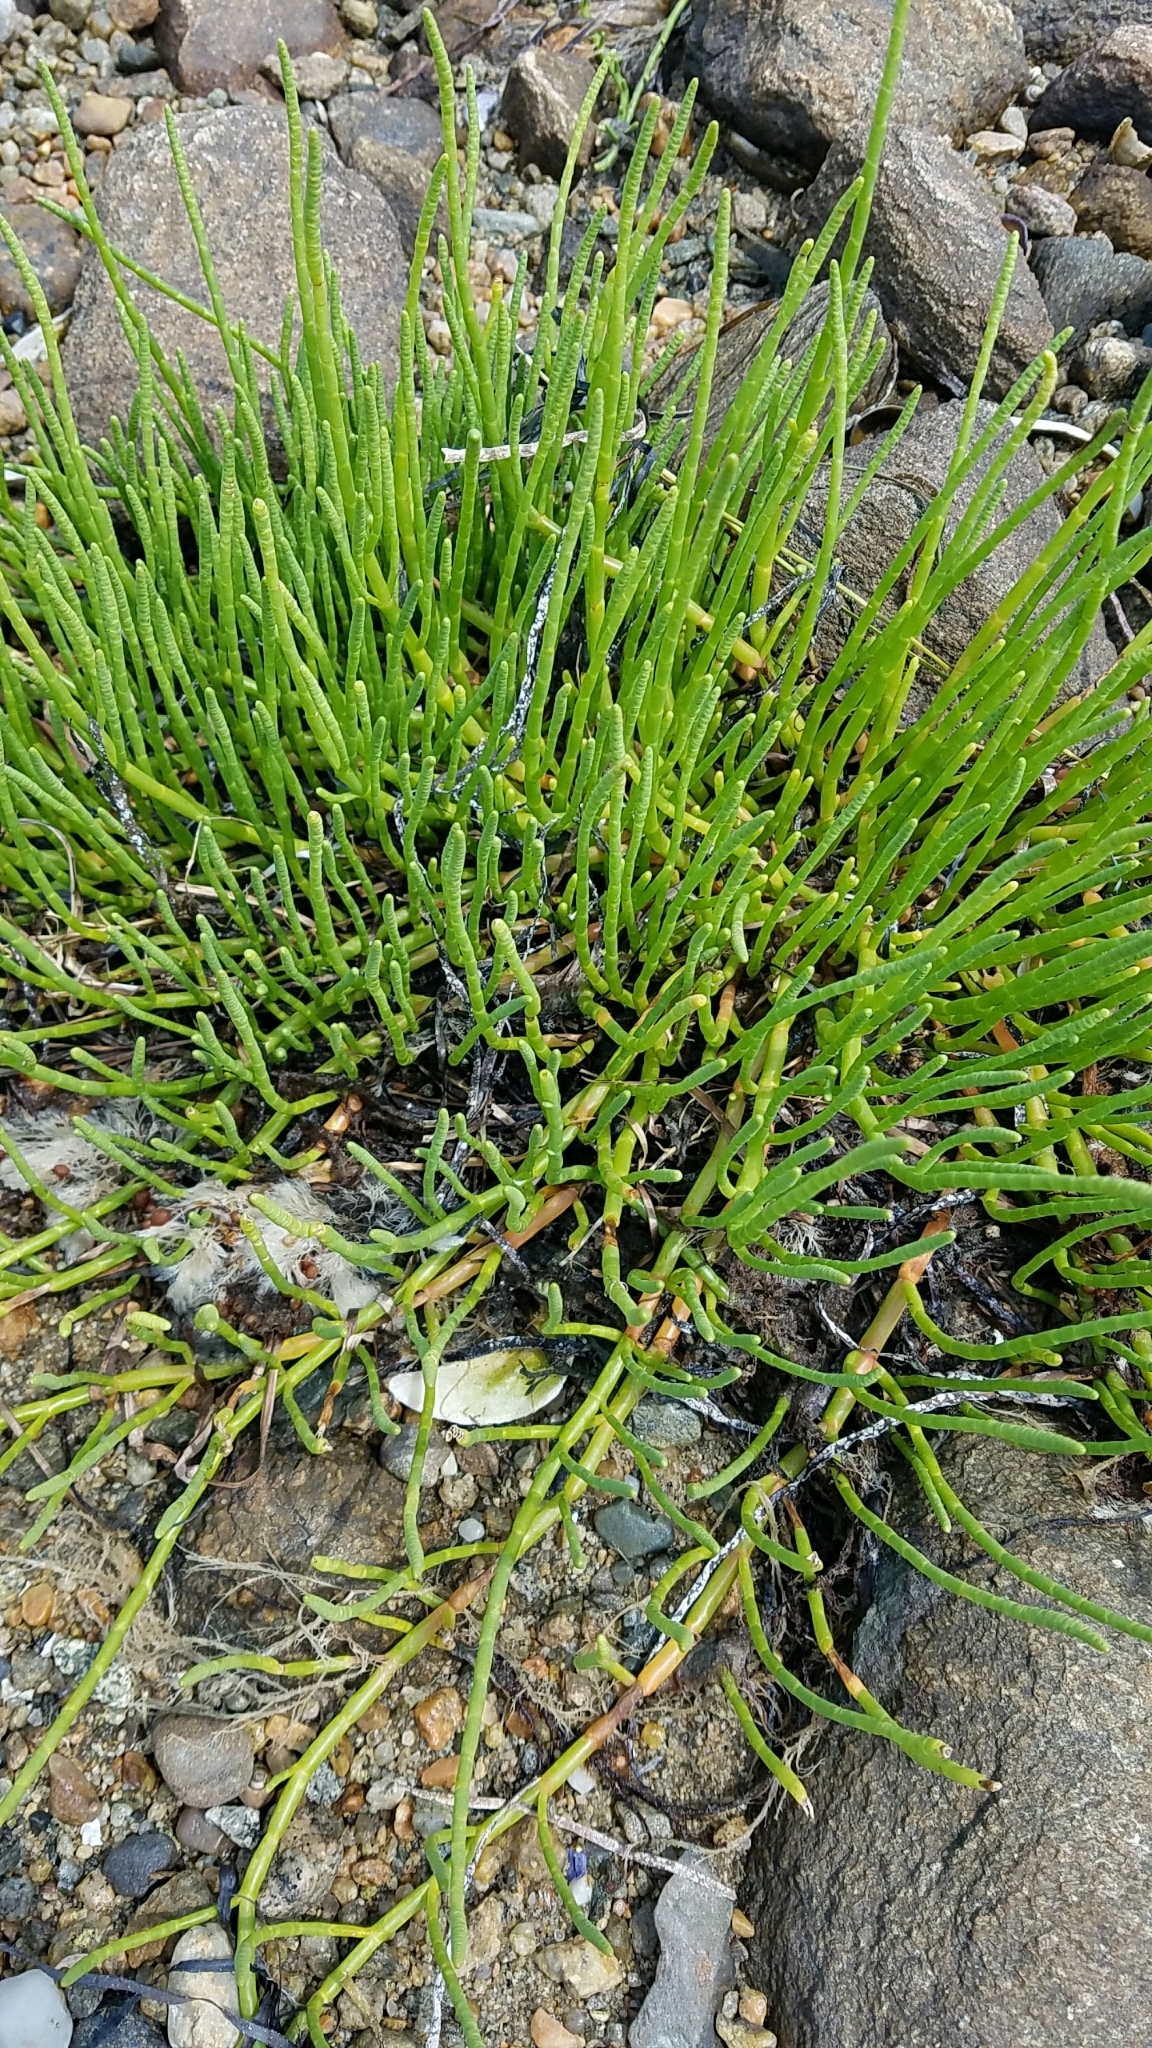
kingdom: Plantae
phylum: Tracheophyta
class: Magnoliopsida
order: Caryophyllales
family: Amaranthaceae
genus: Salicornia
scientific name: Salicornia perennis
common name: Chicken claws
